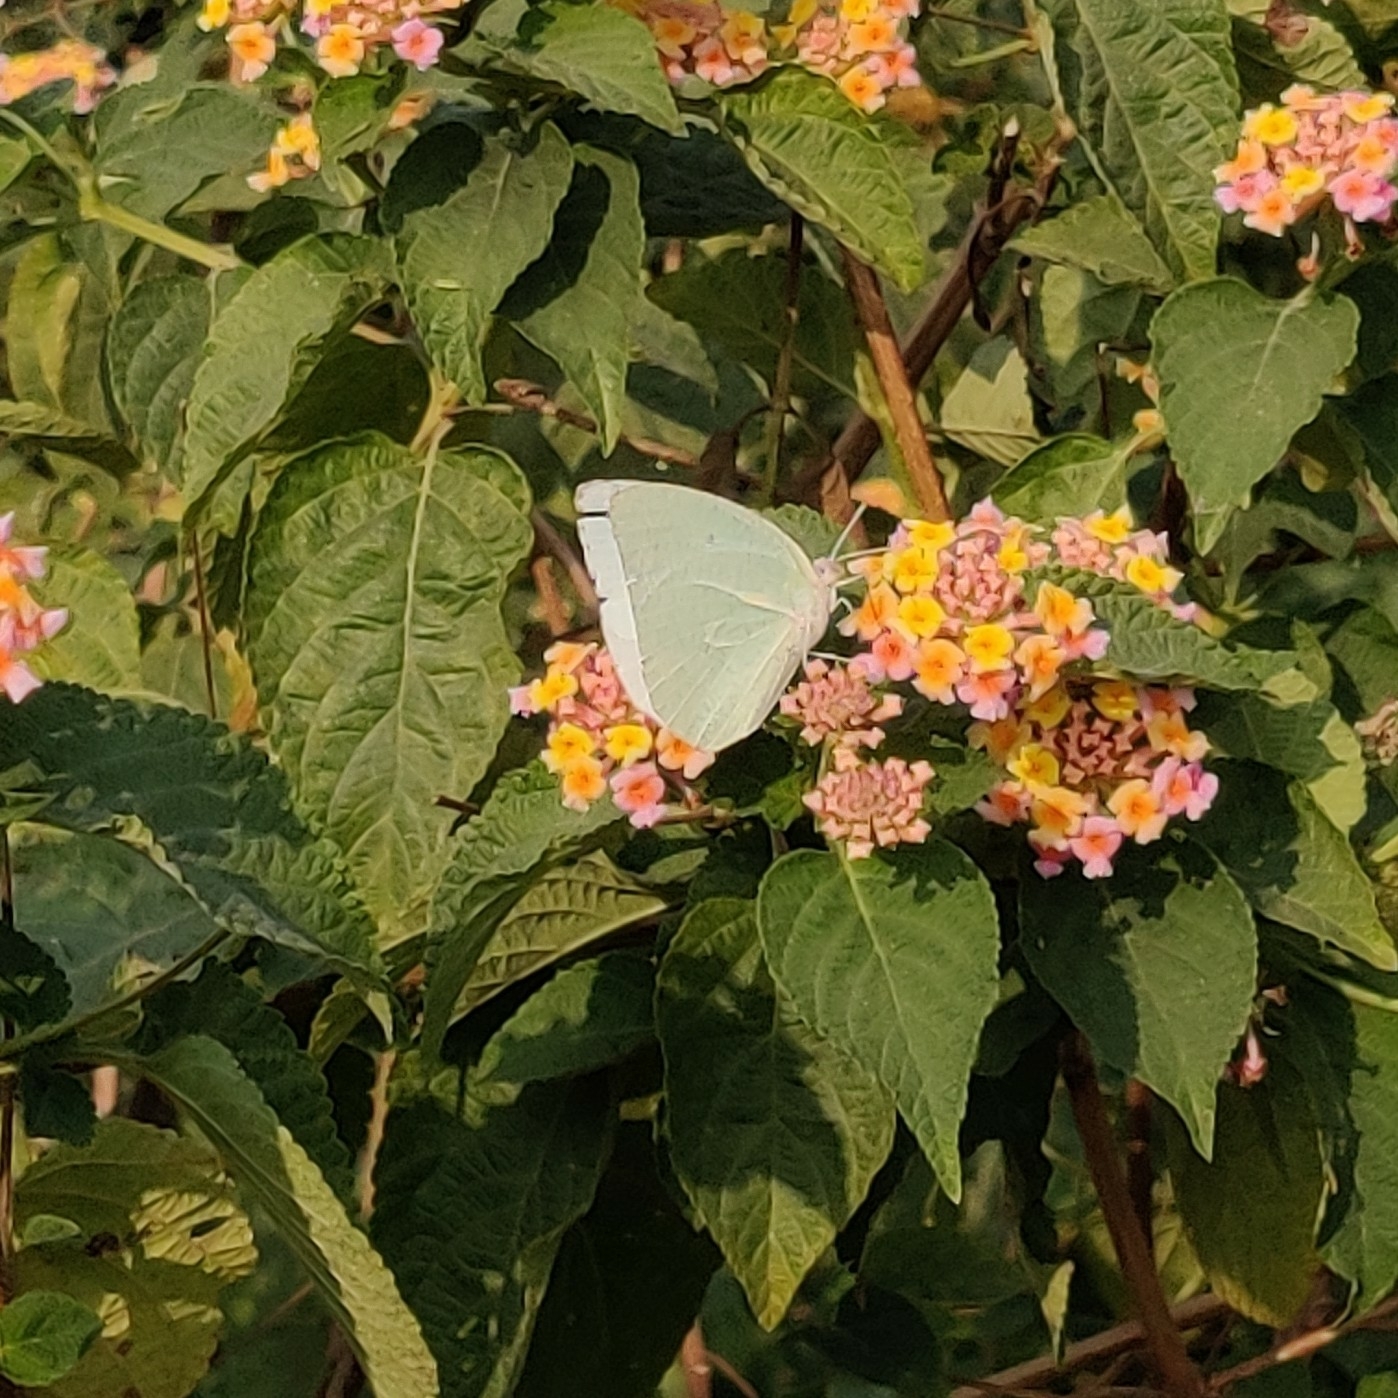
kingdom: Animalia
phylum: Arthropoda
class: Insecta
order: Lepidoptera
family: Pieridae
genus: Catopsilia
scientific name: Catopsilia pyranthe
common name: Mottled emigrant
